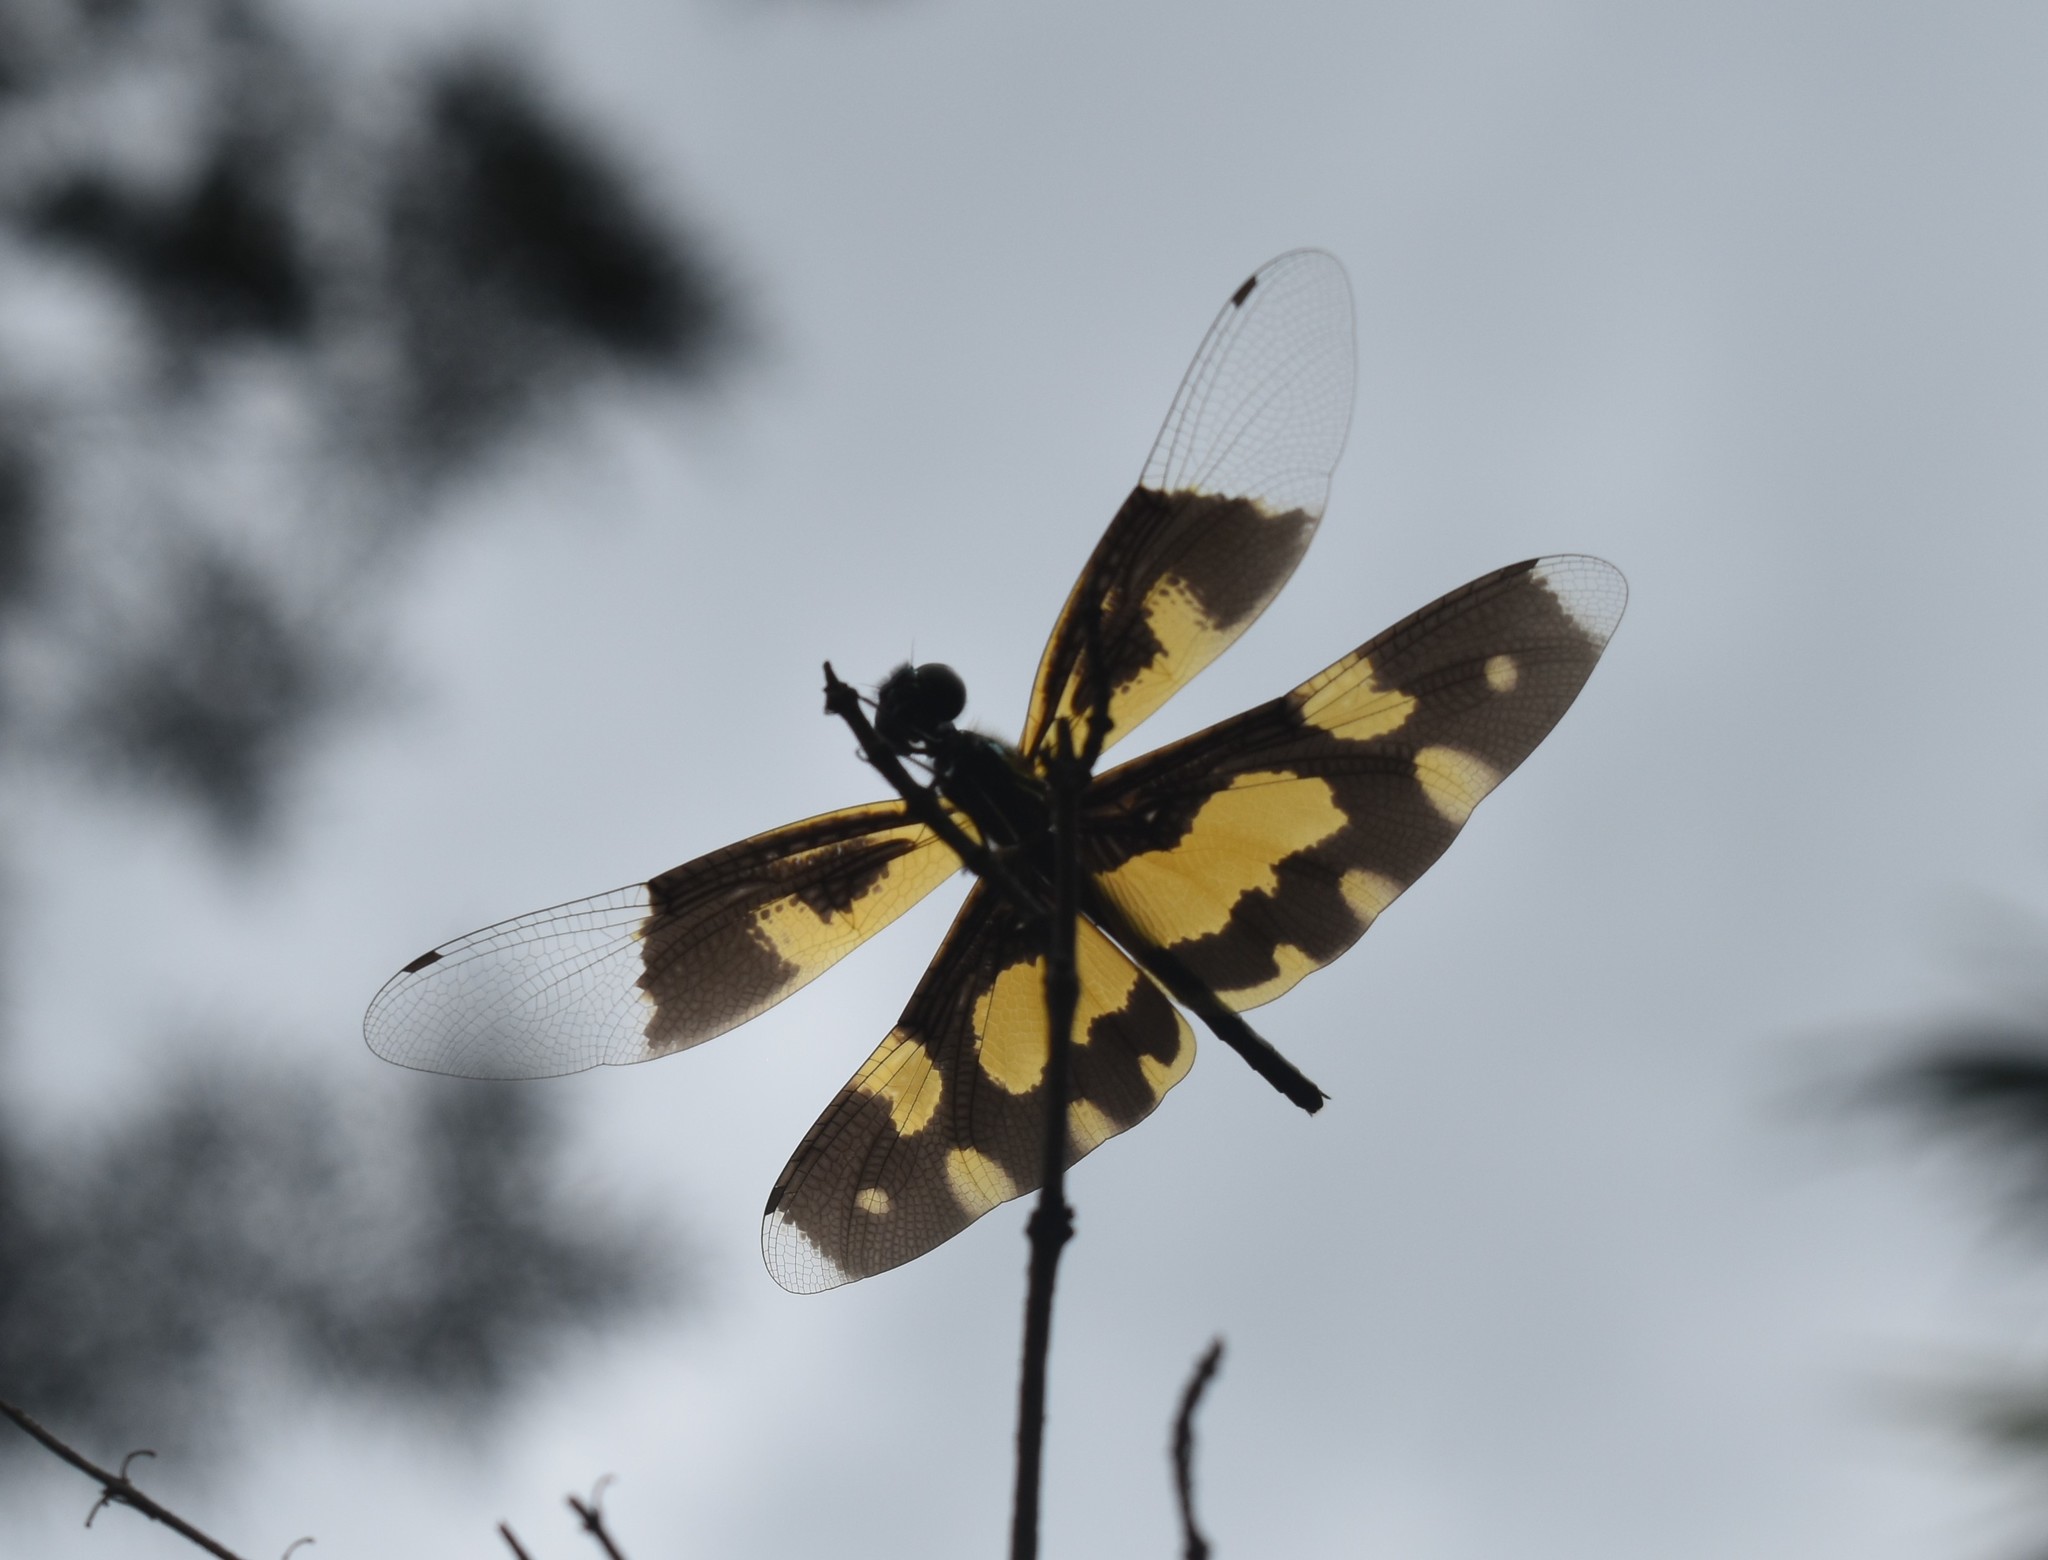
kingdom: Animalia
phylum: Arthropoda
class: Insecta
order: Odonata
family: Libellulidae
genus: Rhyothemis
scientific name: Rhyothemis variegata
